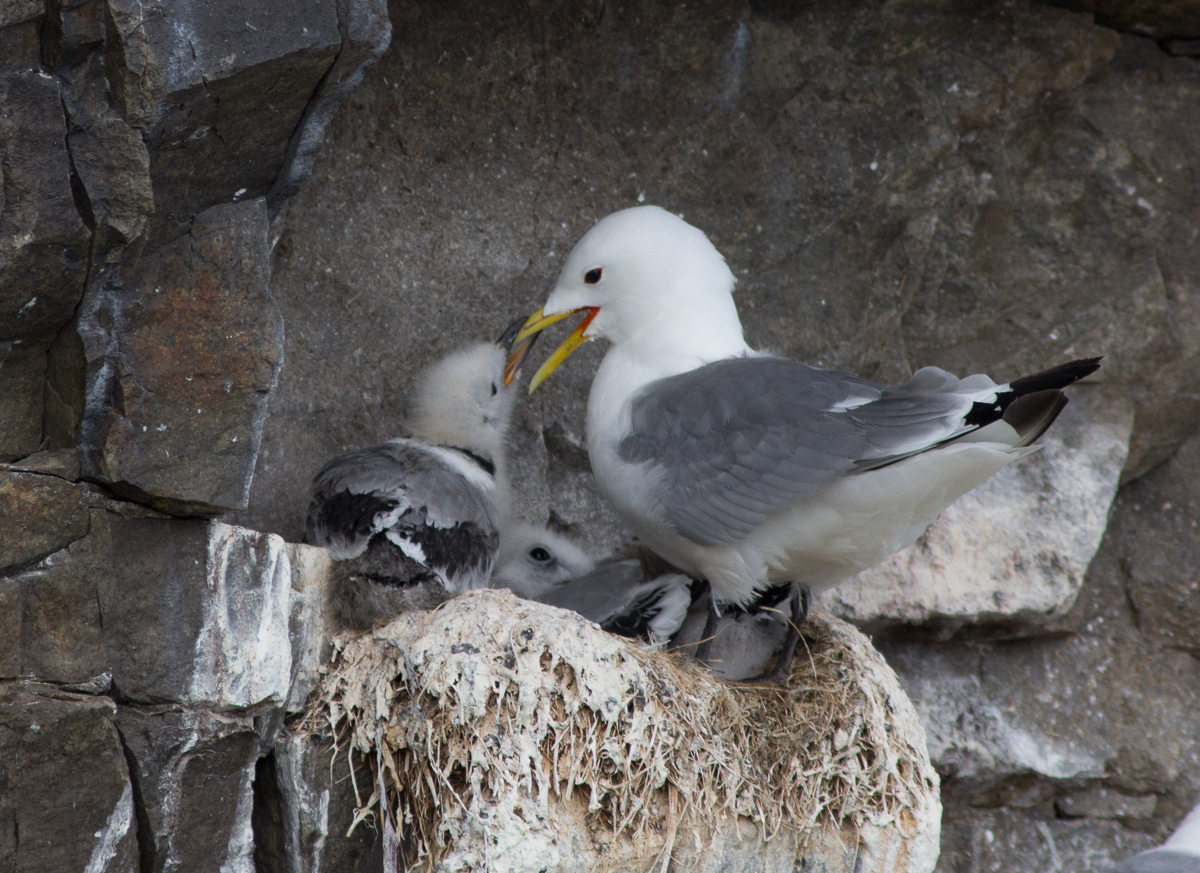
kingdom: Animalia
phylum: Chordata
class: Aves
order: Charadriiformes
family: Laridae
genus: Rissa
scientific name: Rissa tridactyla
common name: Black-legged kittiwake
